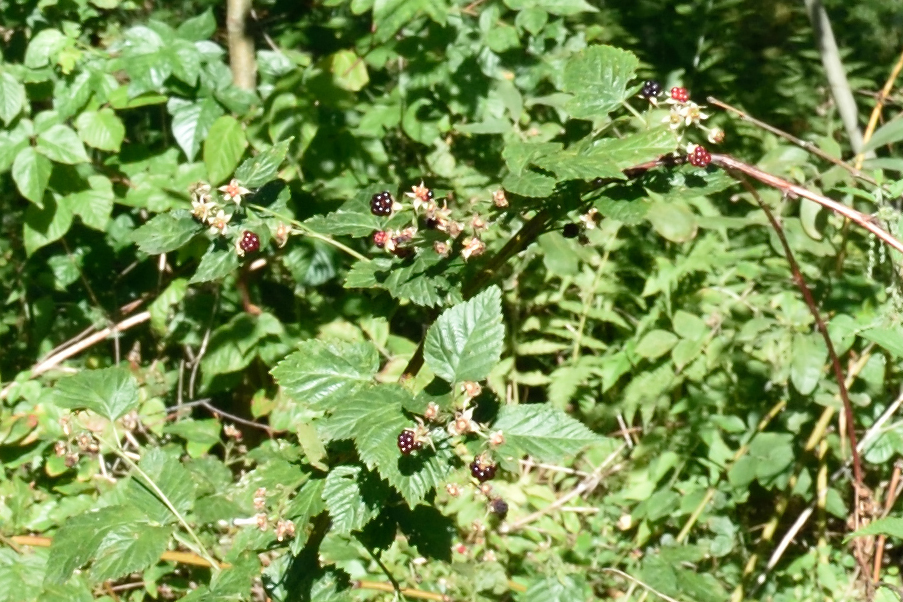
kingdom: Plantae
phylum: Tracheophyta
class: Magnoliopsida
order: Rosales
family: Rosaceae
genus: Rubus
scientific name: Rubus polonicus
